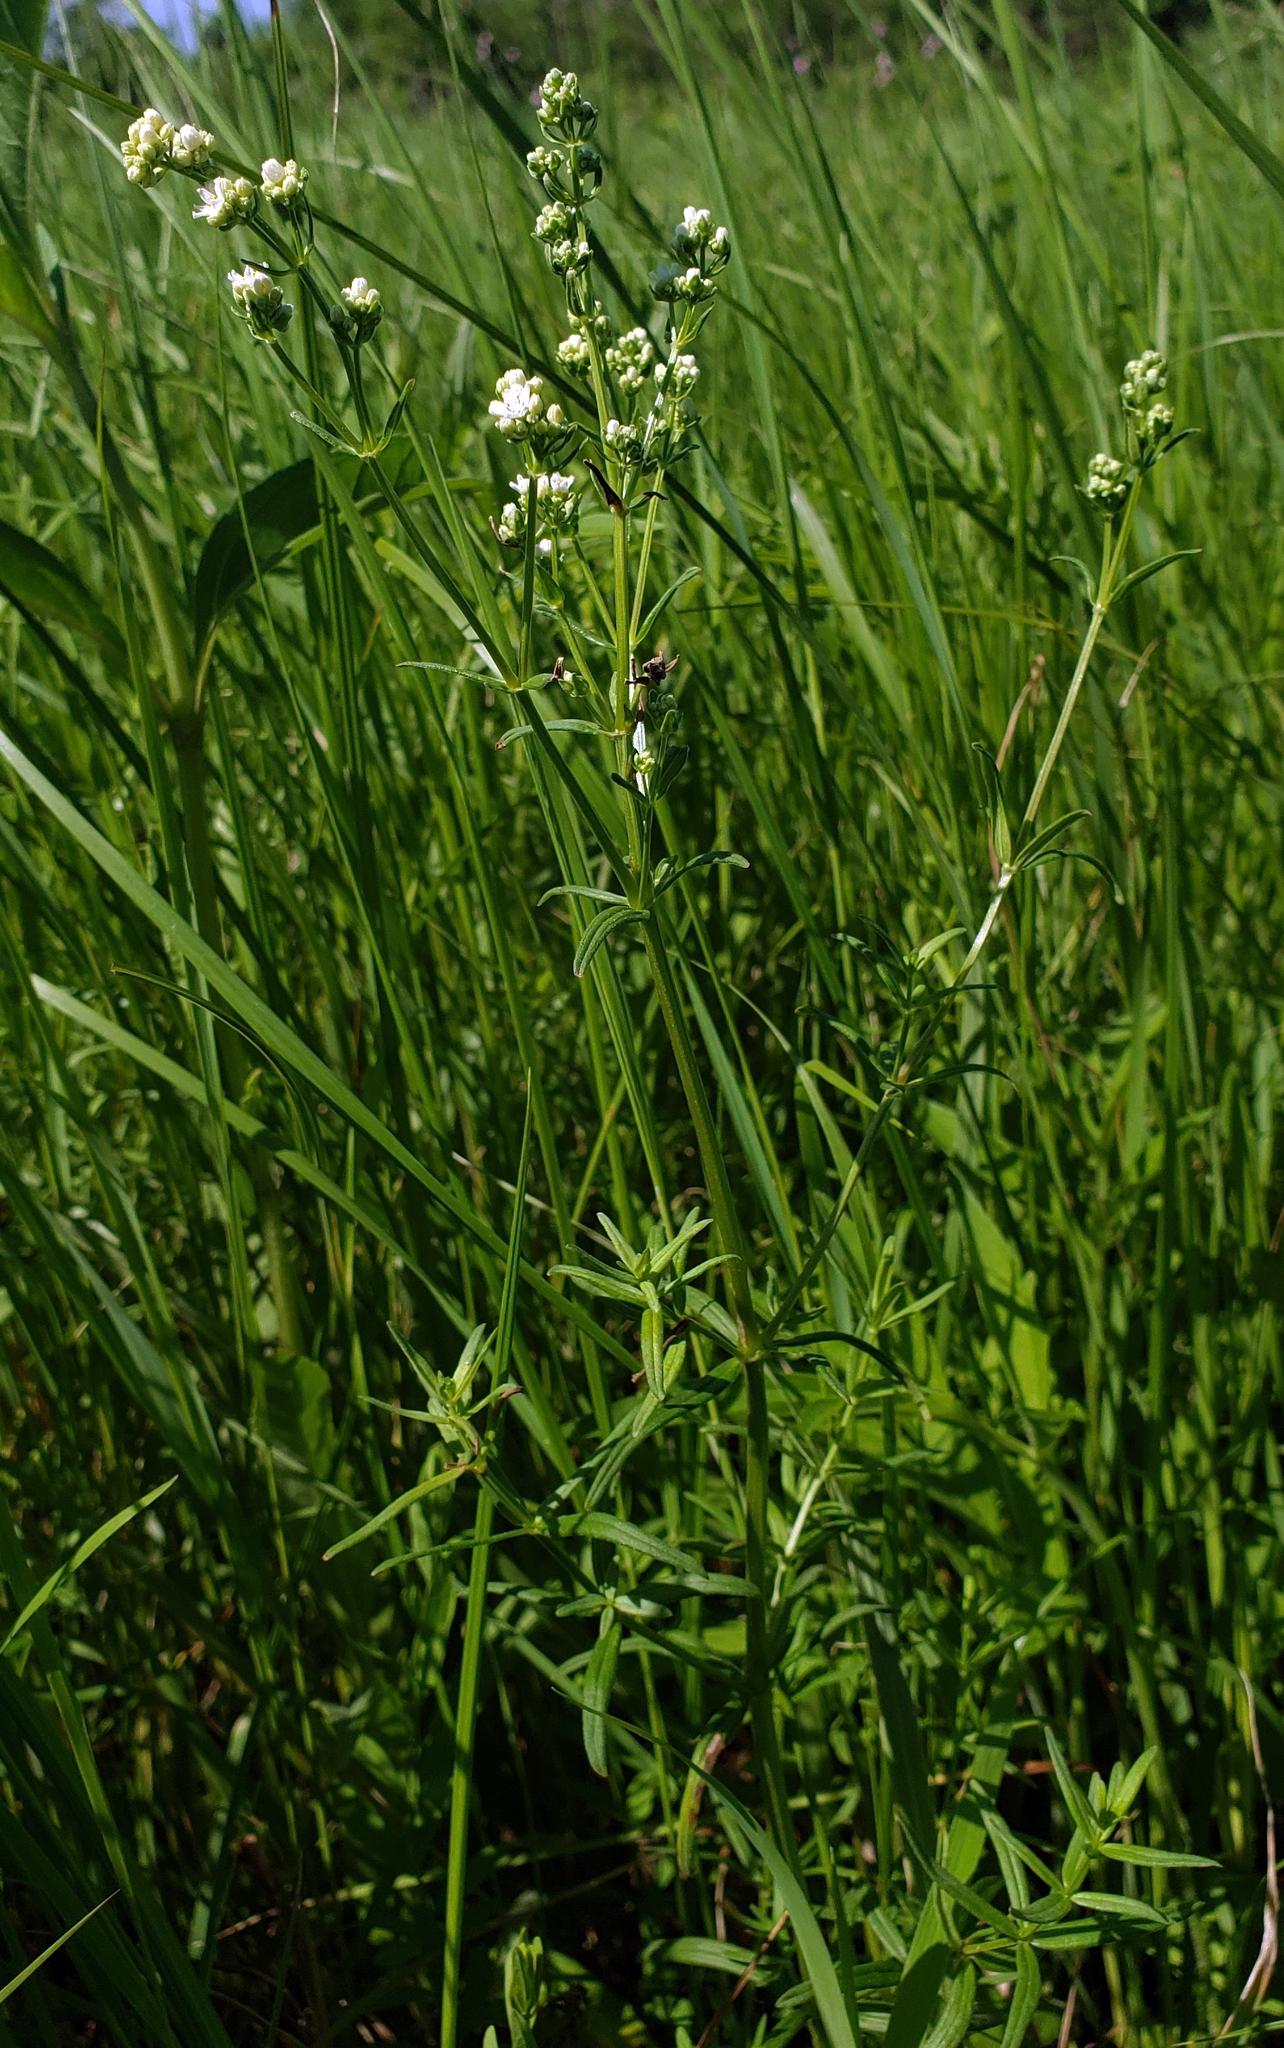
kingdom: Plantae
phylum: Tracheophyta
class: Magnoliopsida
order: Gentianales
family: Rubiaceae
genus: Galium
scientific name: Galium boreale
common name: Northern bedstraw
